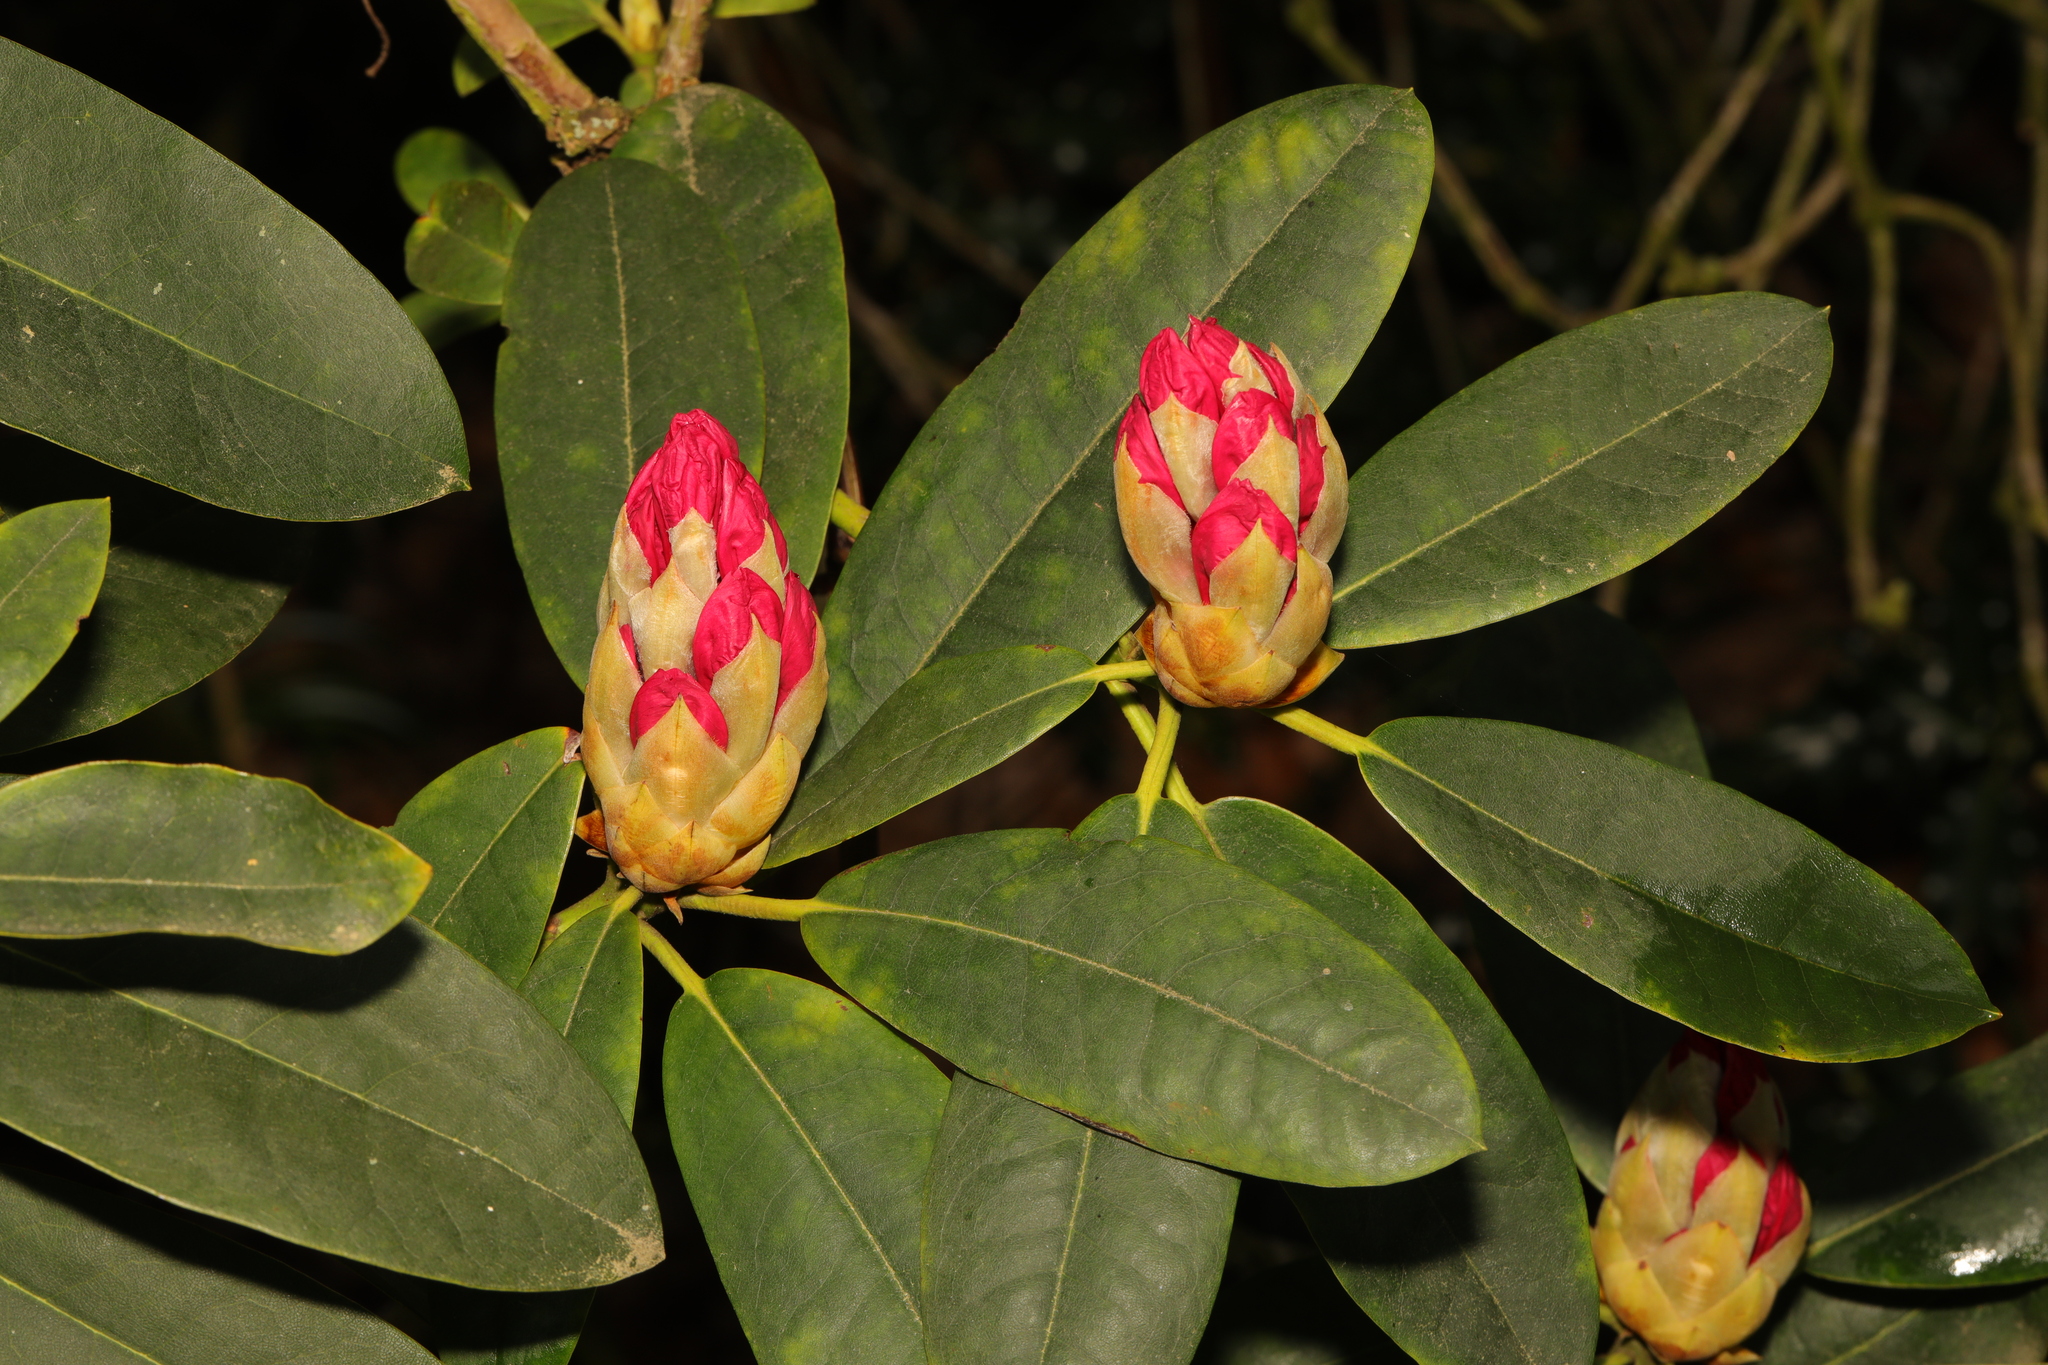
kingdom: Plantae
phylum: Tracheophyta
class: Magnoliopsida
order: Ericales
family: Ericaceae
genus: Rhododendron
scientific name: Rhododendron ponticum
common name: Rhododendron
